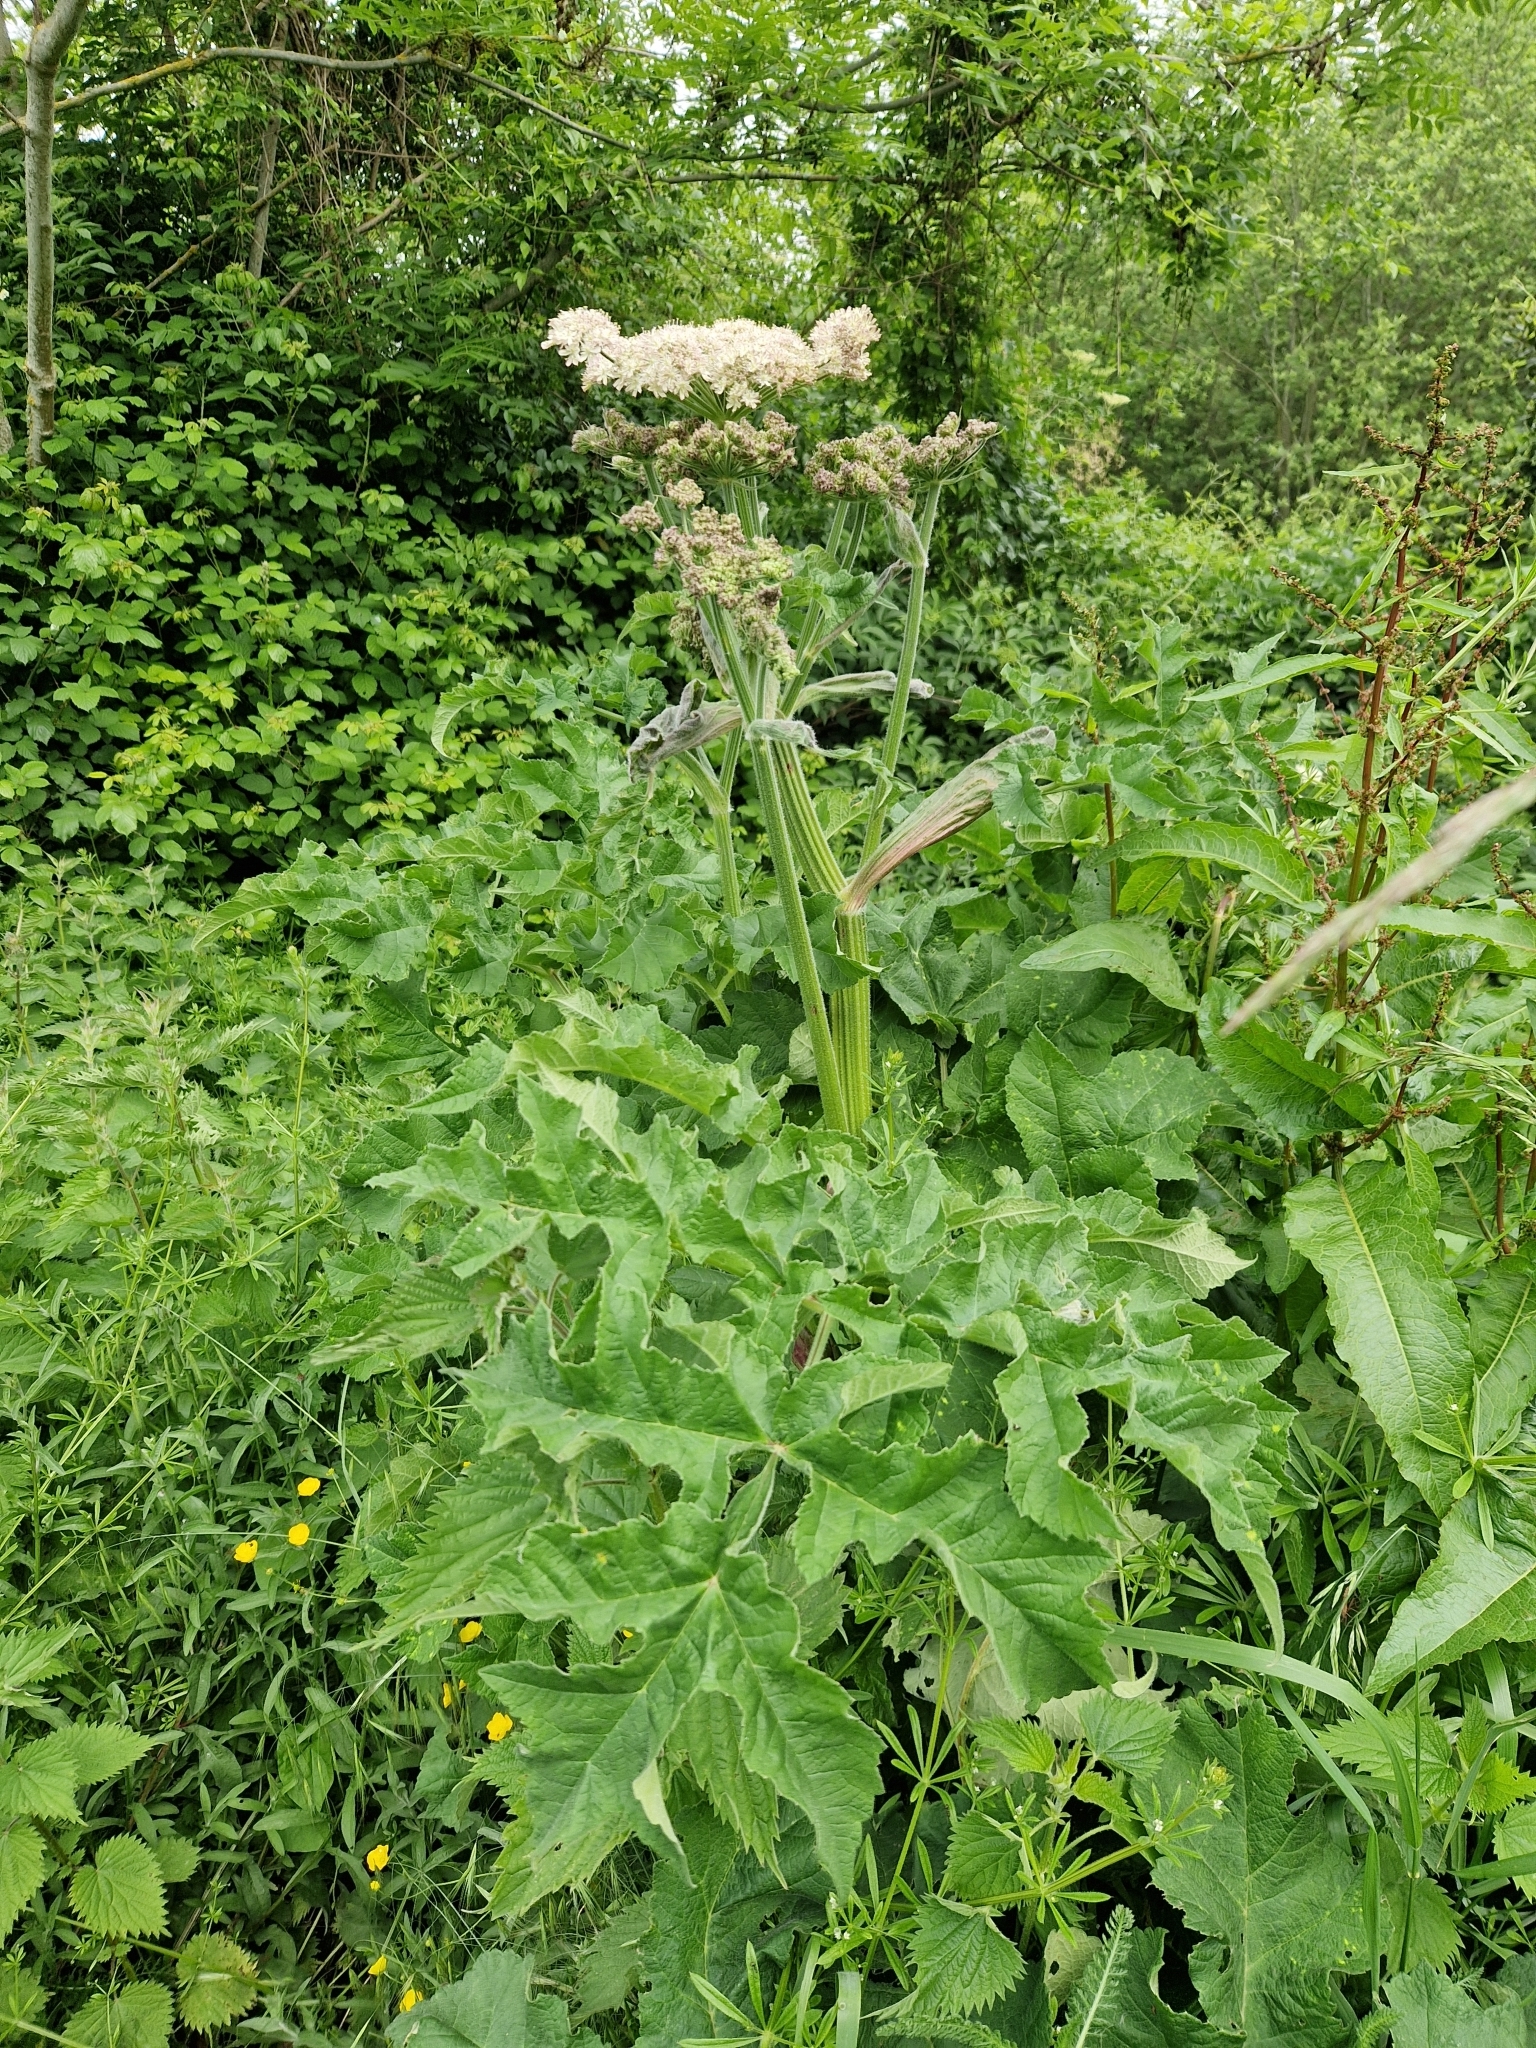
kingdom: Plantae
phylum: Tracheophyta
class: Magnoliopsida
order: Apiales
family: Apiaceae
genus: Heracleum
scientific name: Heracleum sphondylium
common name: Hogweed
